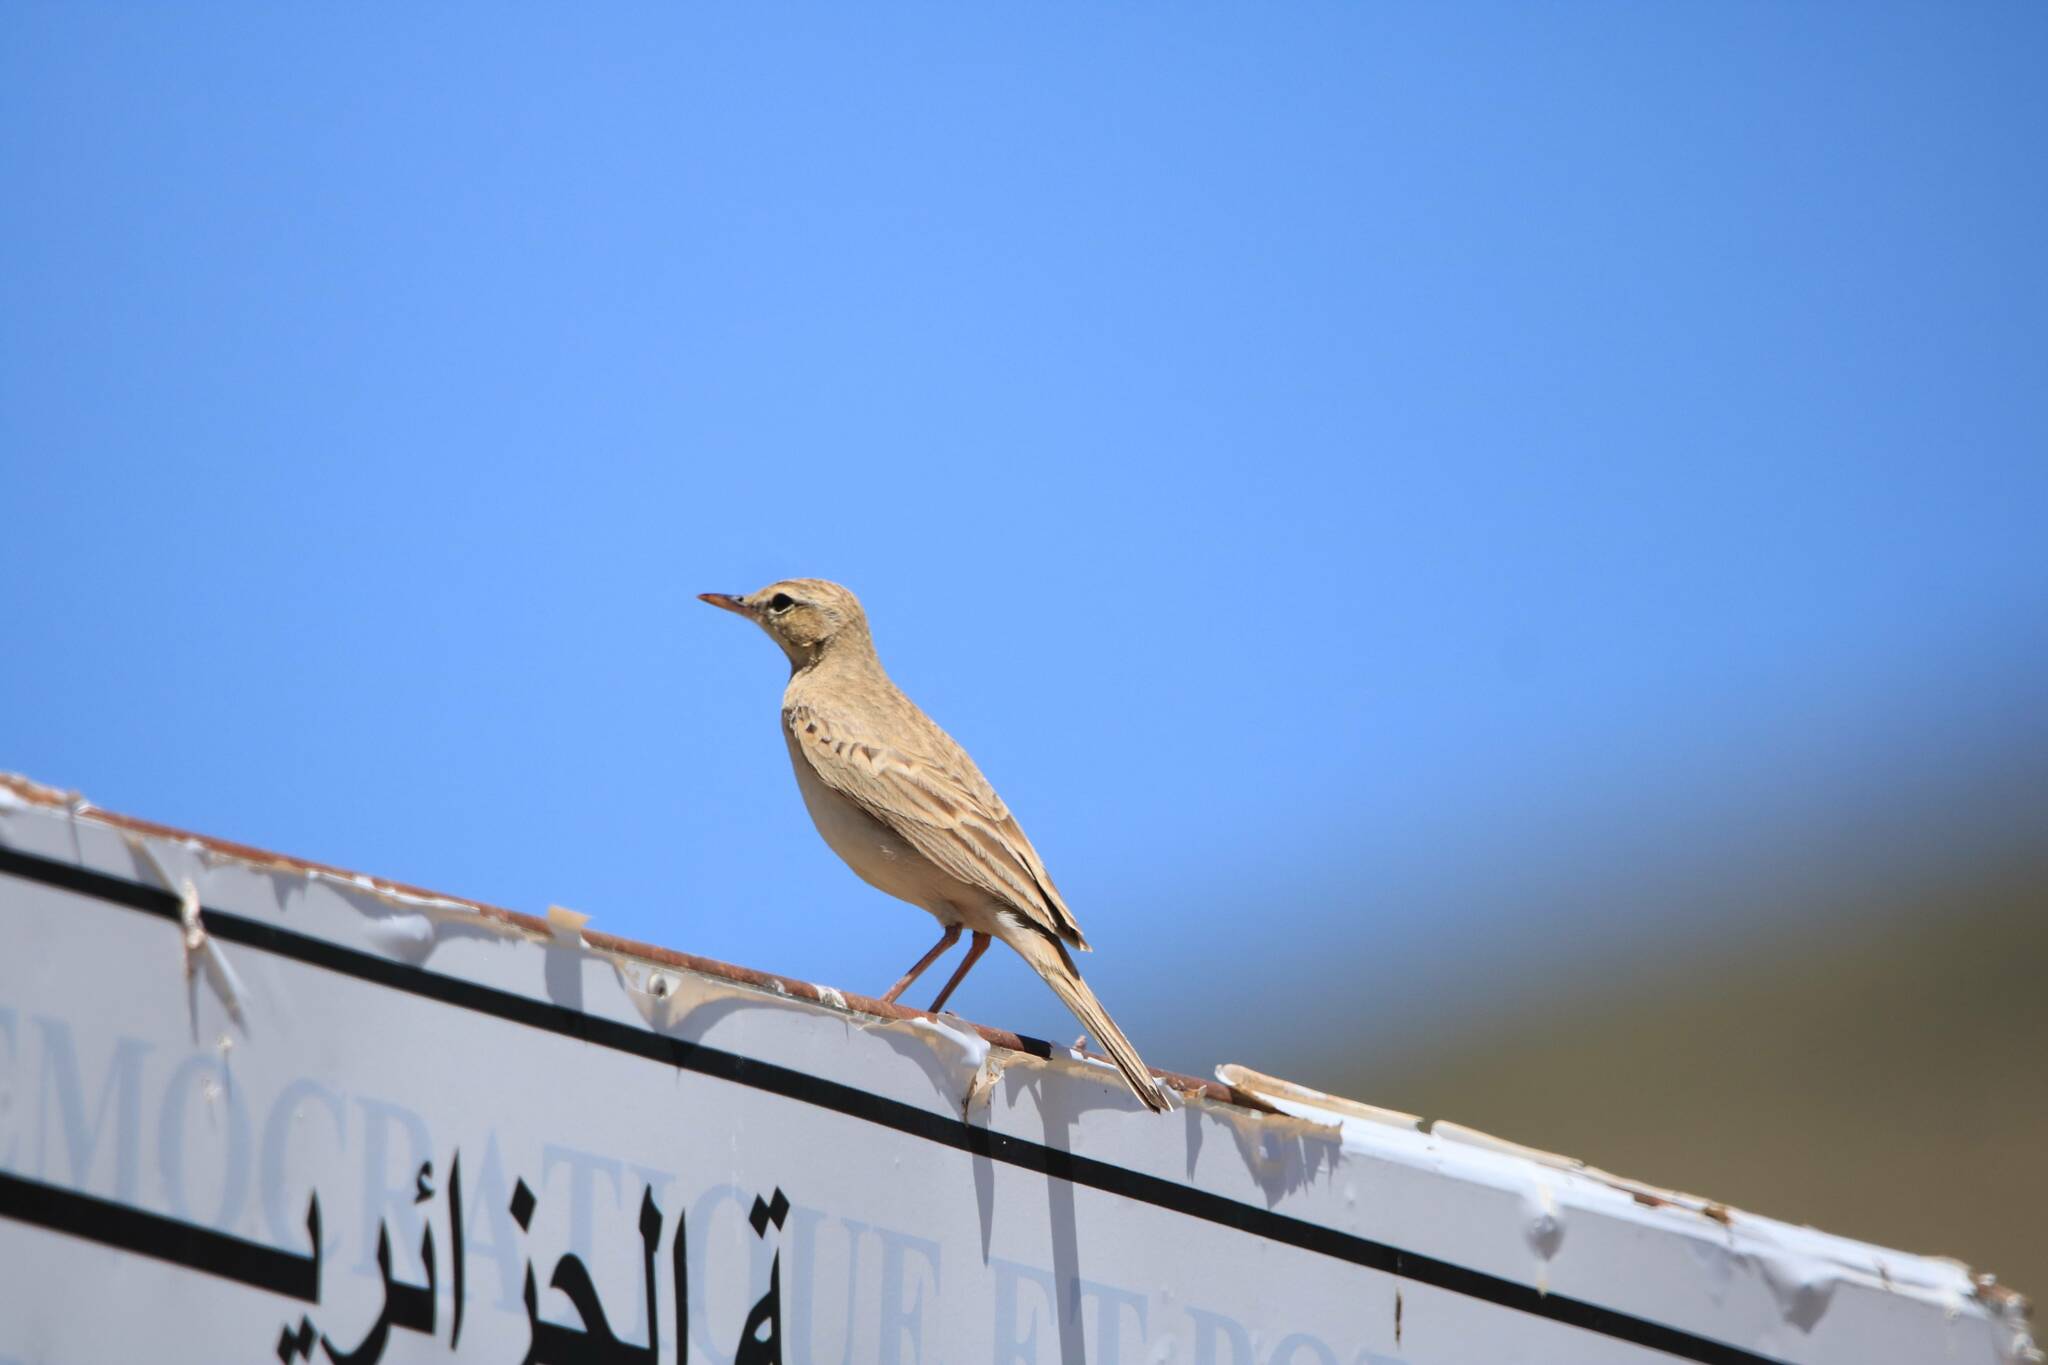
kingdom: Animalia
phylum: Chordata
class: Aves
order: Passeriformes
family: Motacillidae
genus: Anthus
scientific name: Anthus campestris
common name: Tawny pipit
